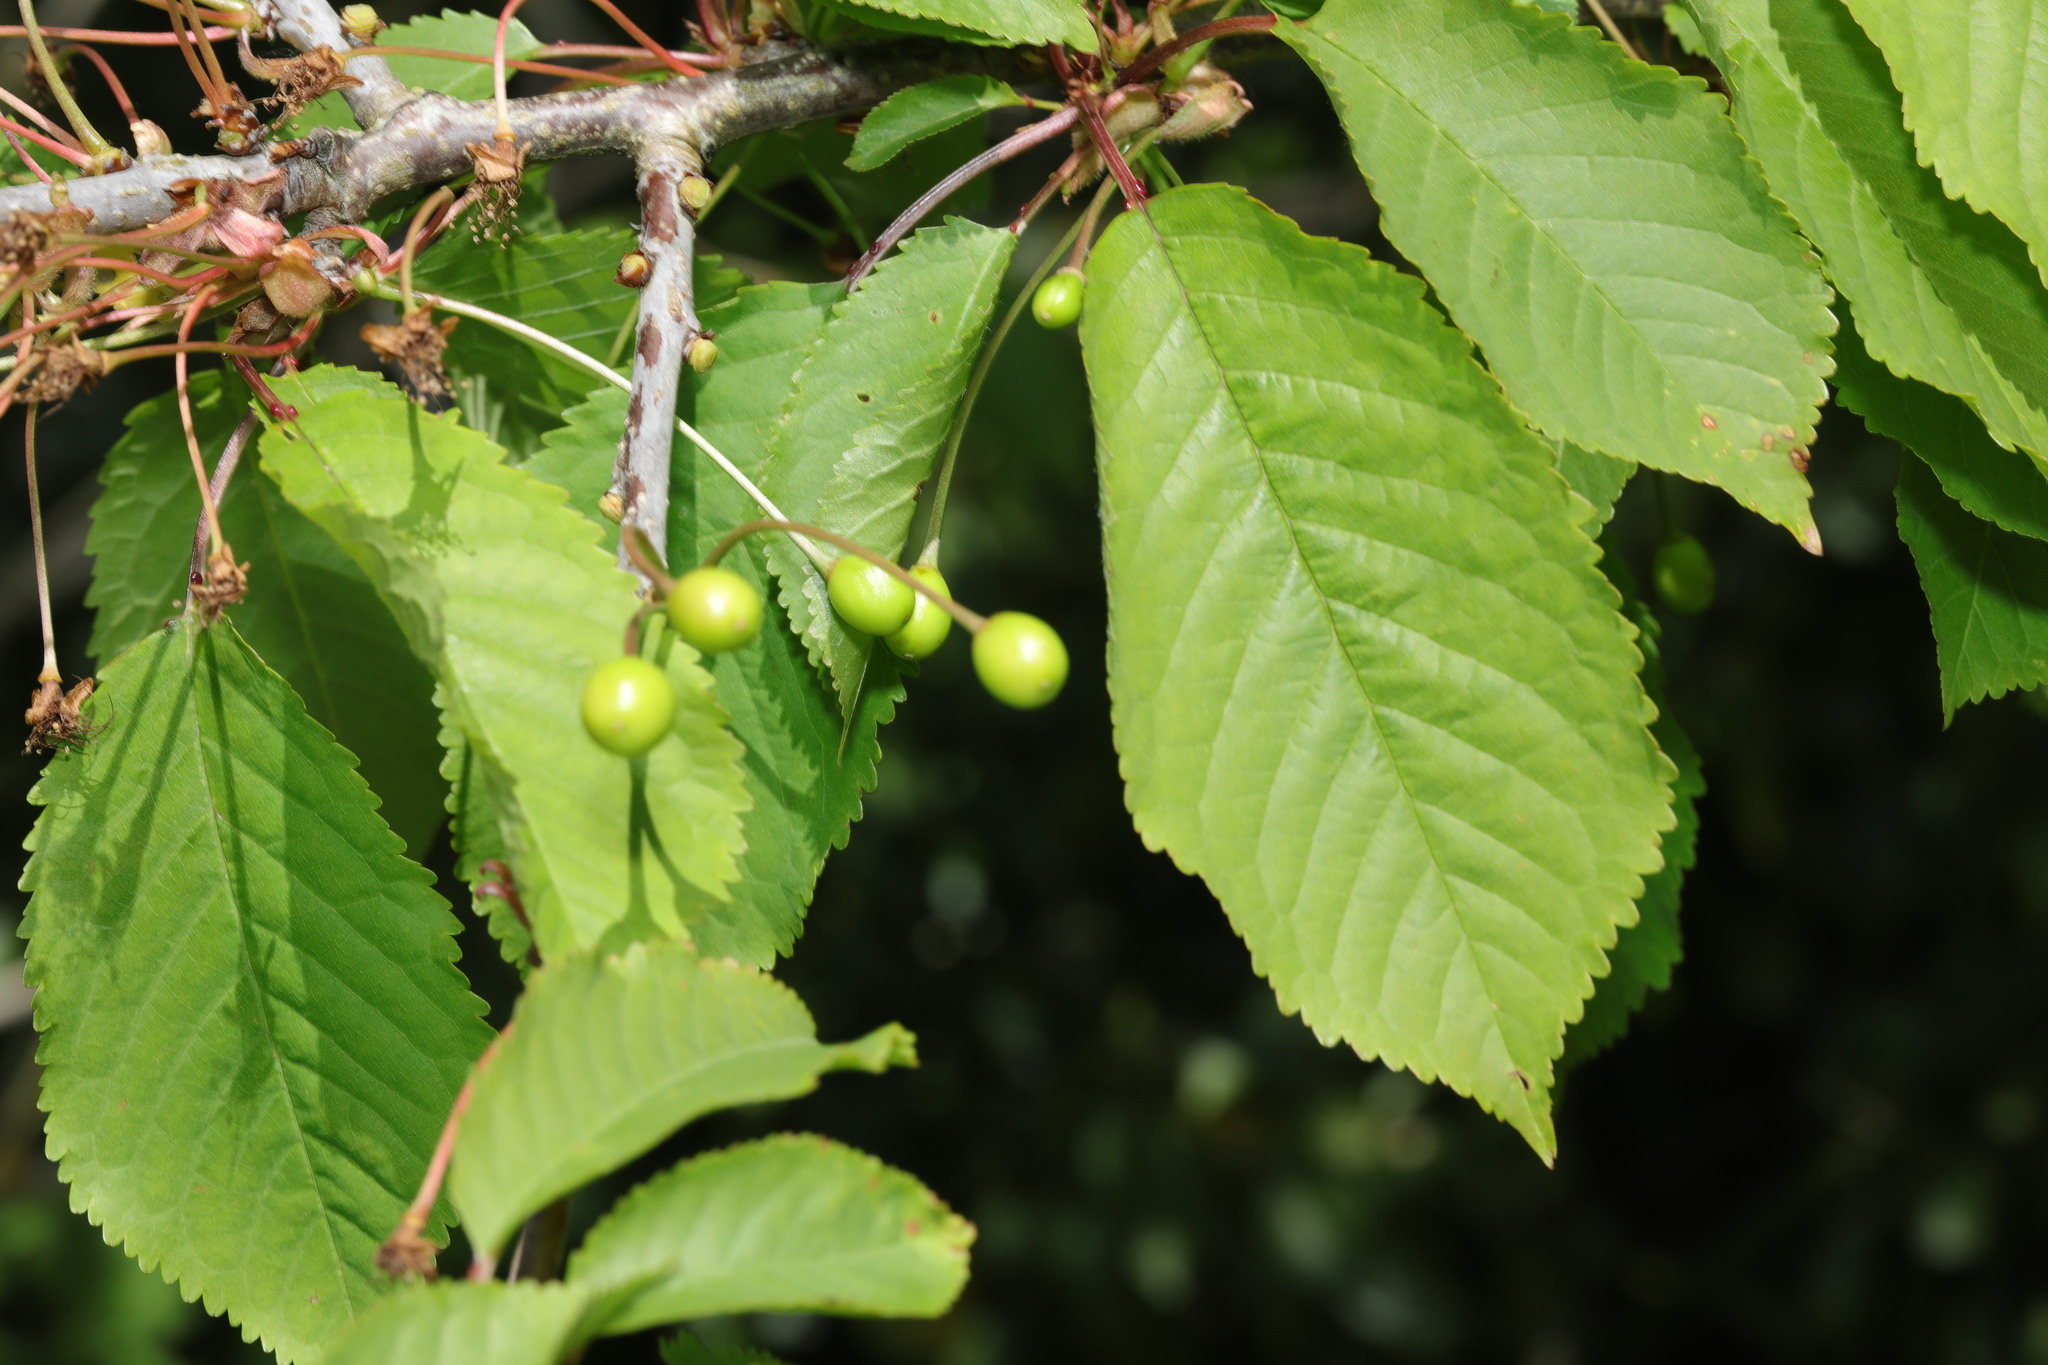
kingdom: Plantae
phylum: Tracheophyta
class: Magnoliopsida
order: Rosales
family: Rosaceae
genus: Prunus
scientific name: Prunus avium
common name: Sweet cherry
